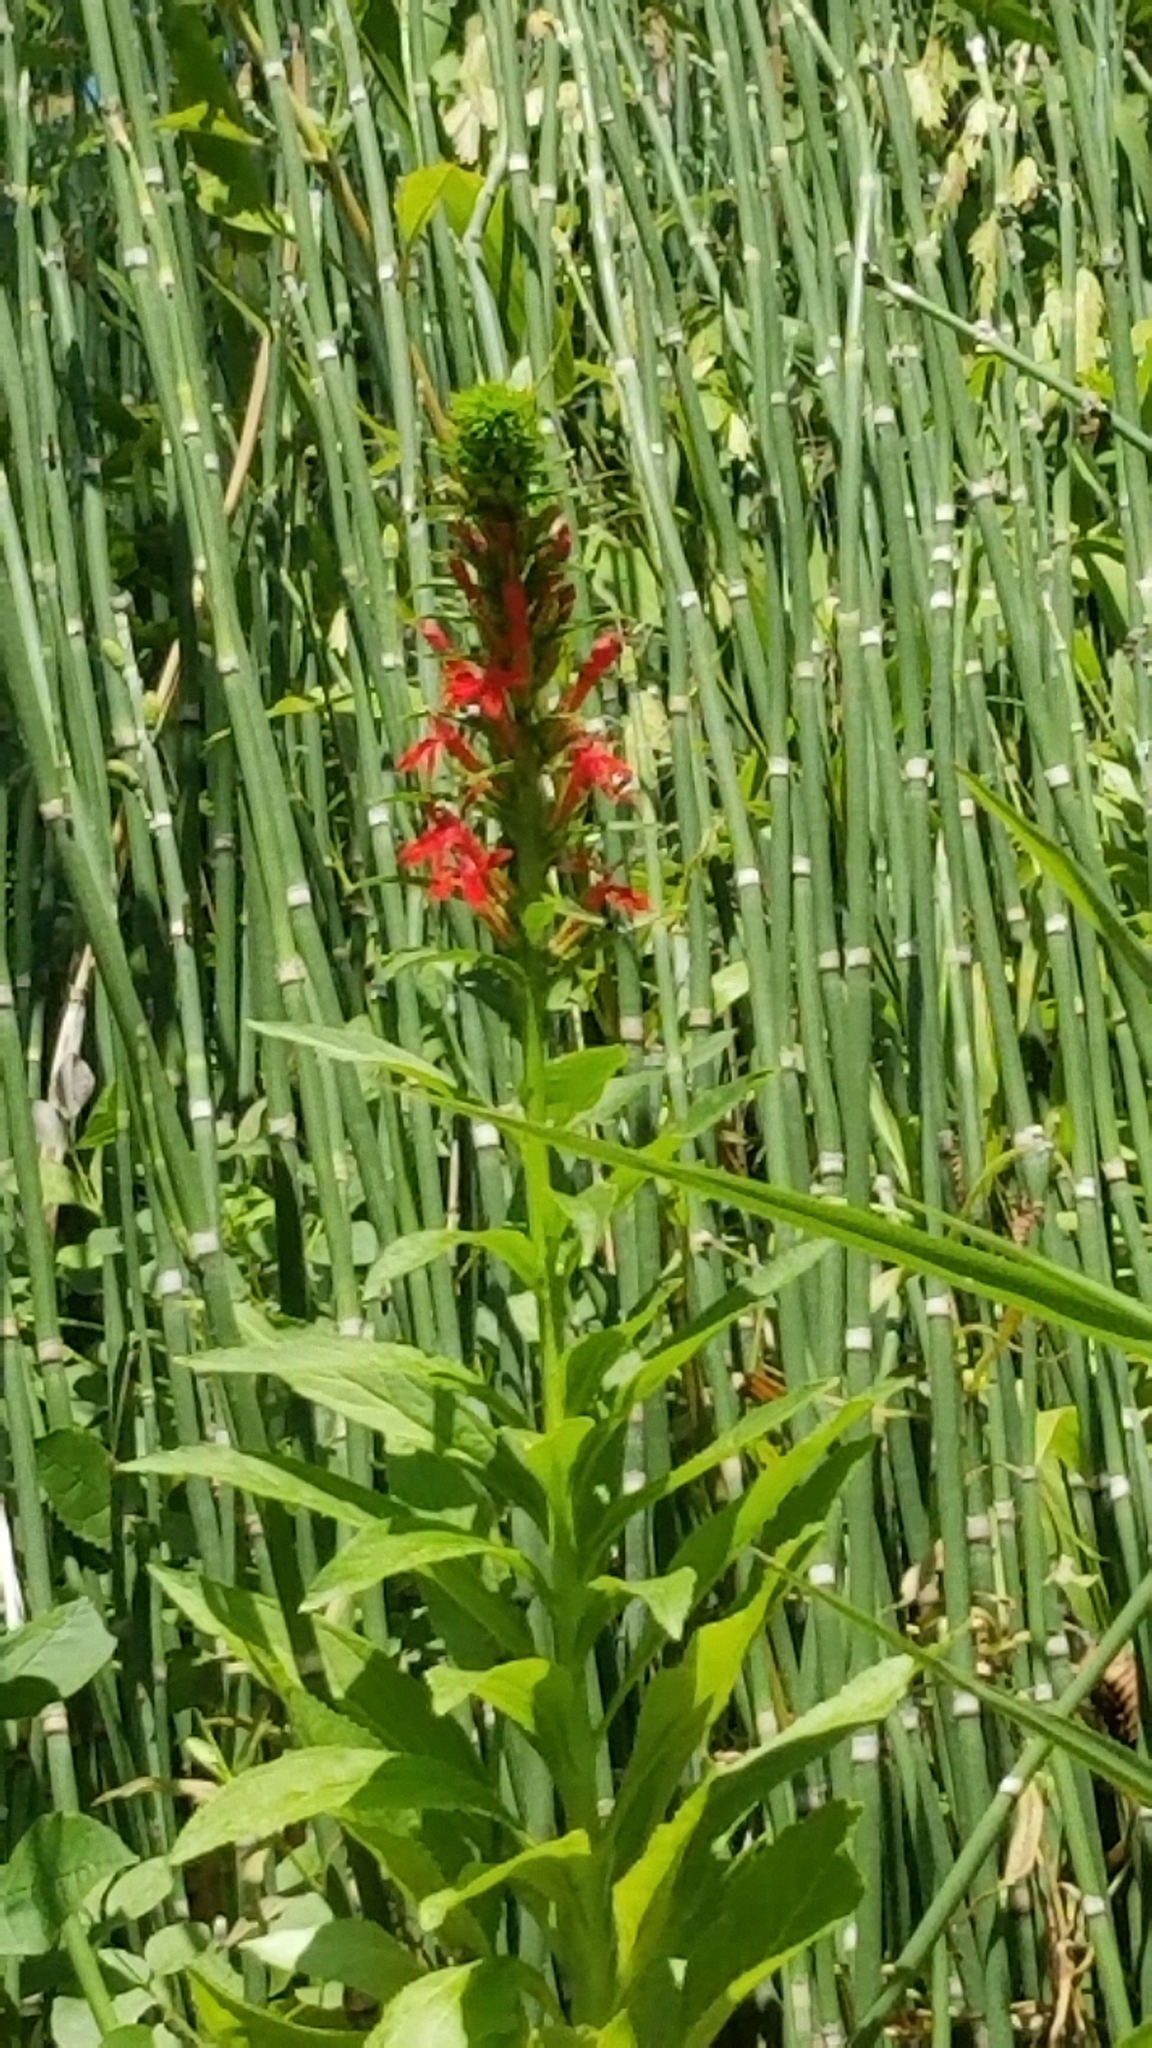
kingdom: Plantae
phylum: Tracheophyta
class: Magnoliopsida
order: Asterales
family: Campanulaceae
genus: Lobelia
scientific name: Lobelia cardinalis
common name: Cardinal flower
